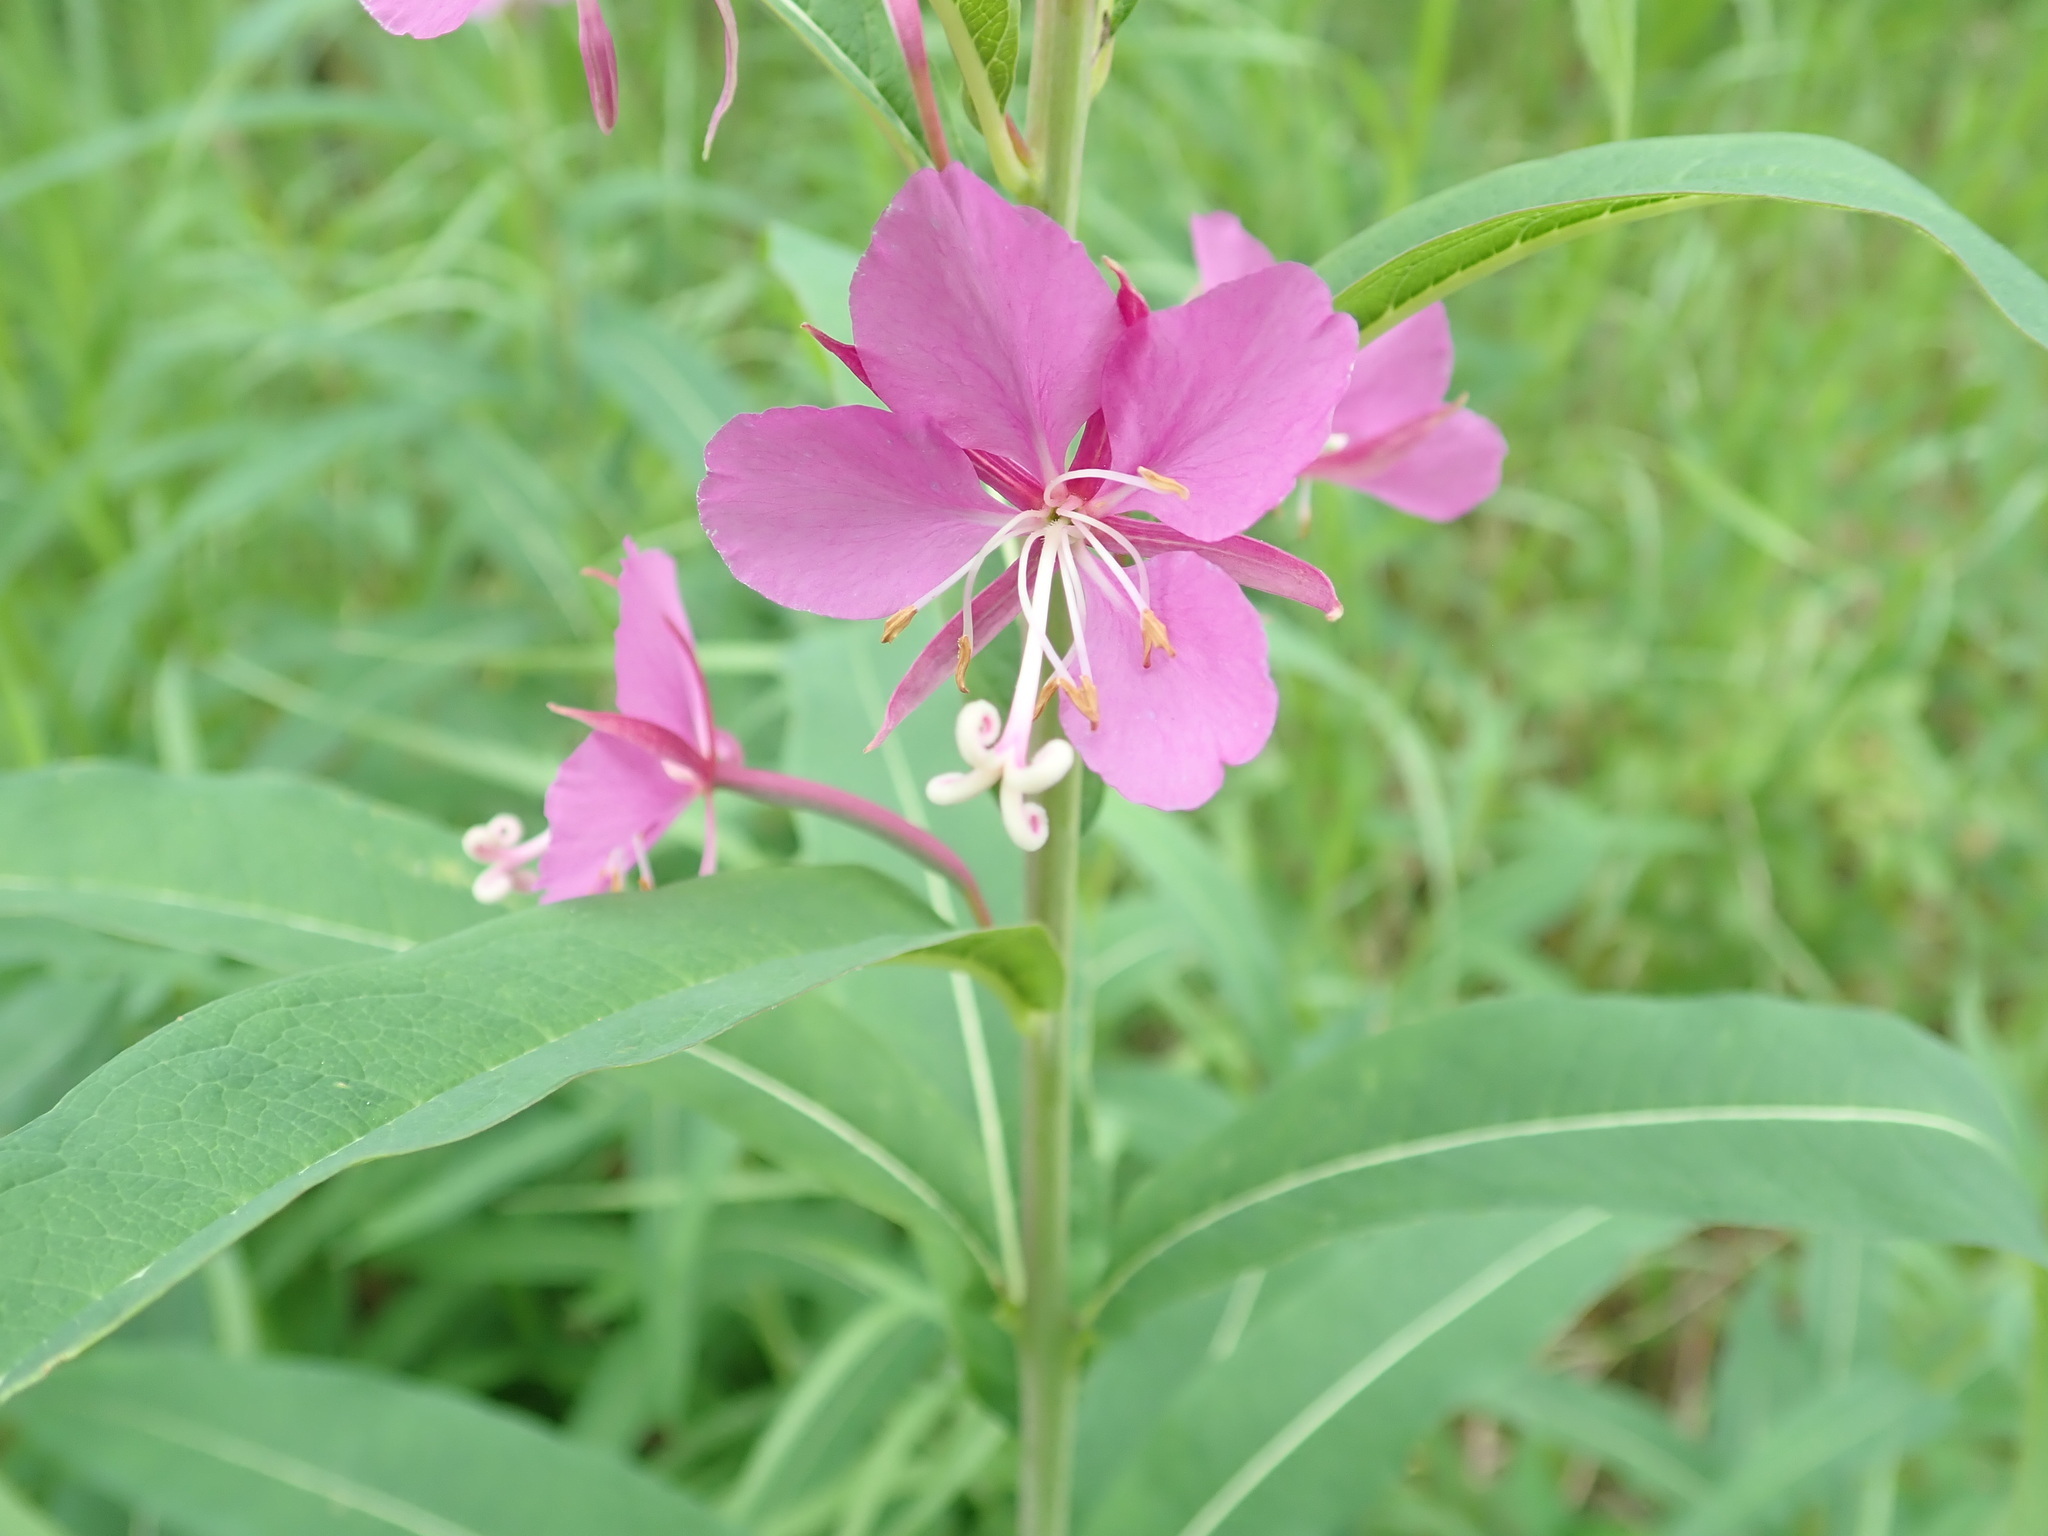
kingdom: Plantae
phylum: Tracheophyta
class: Magnoliopsida
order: Myrtales
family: Onagraceae
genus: Chamaenerion
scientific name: Chamaenerion angustifolium
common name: Fireweed
